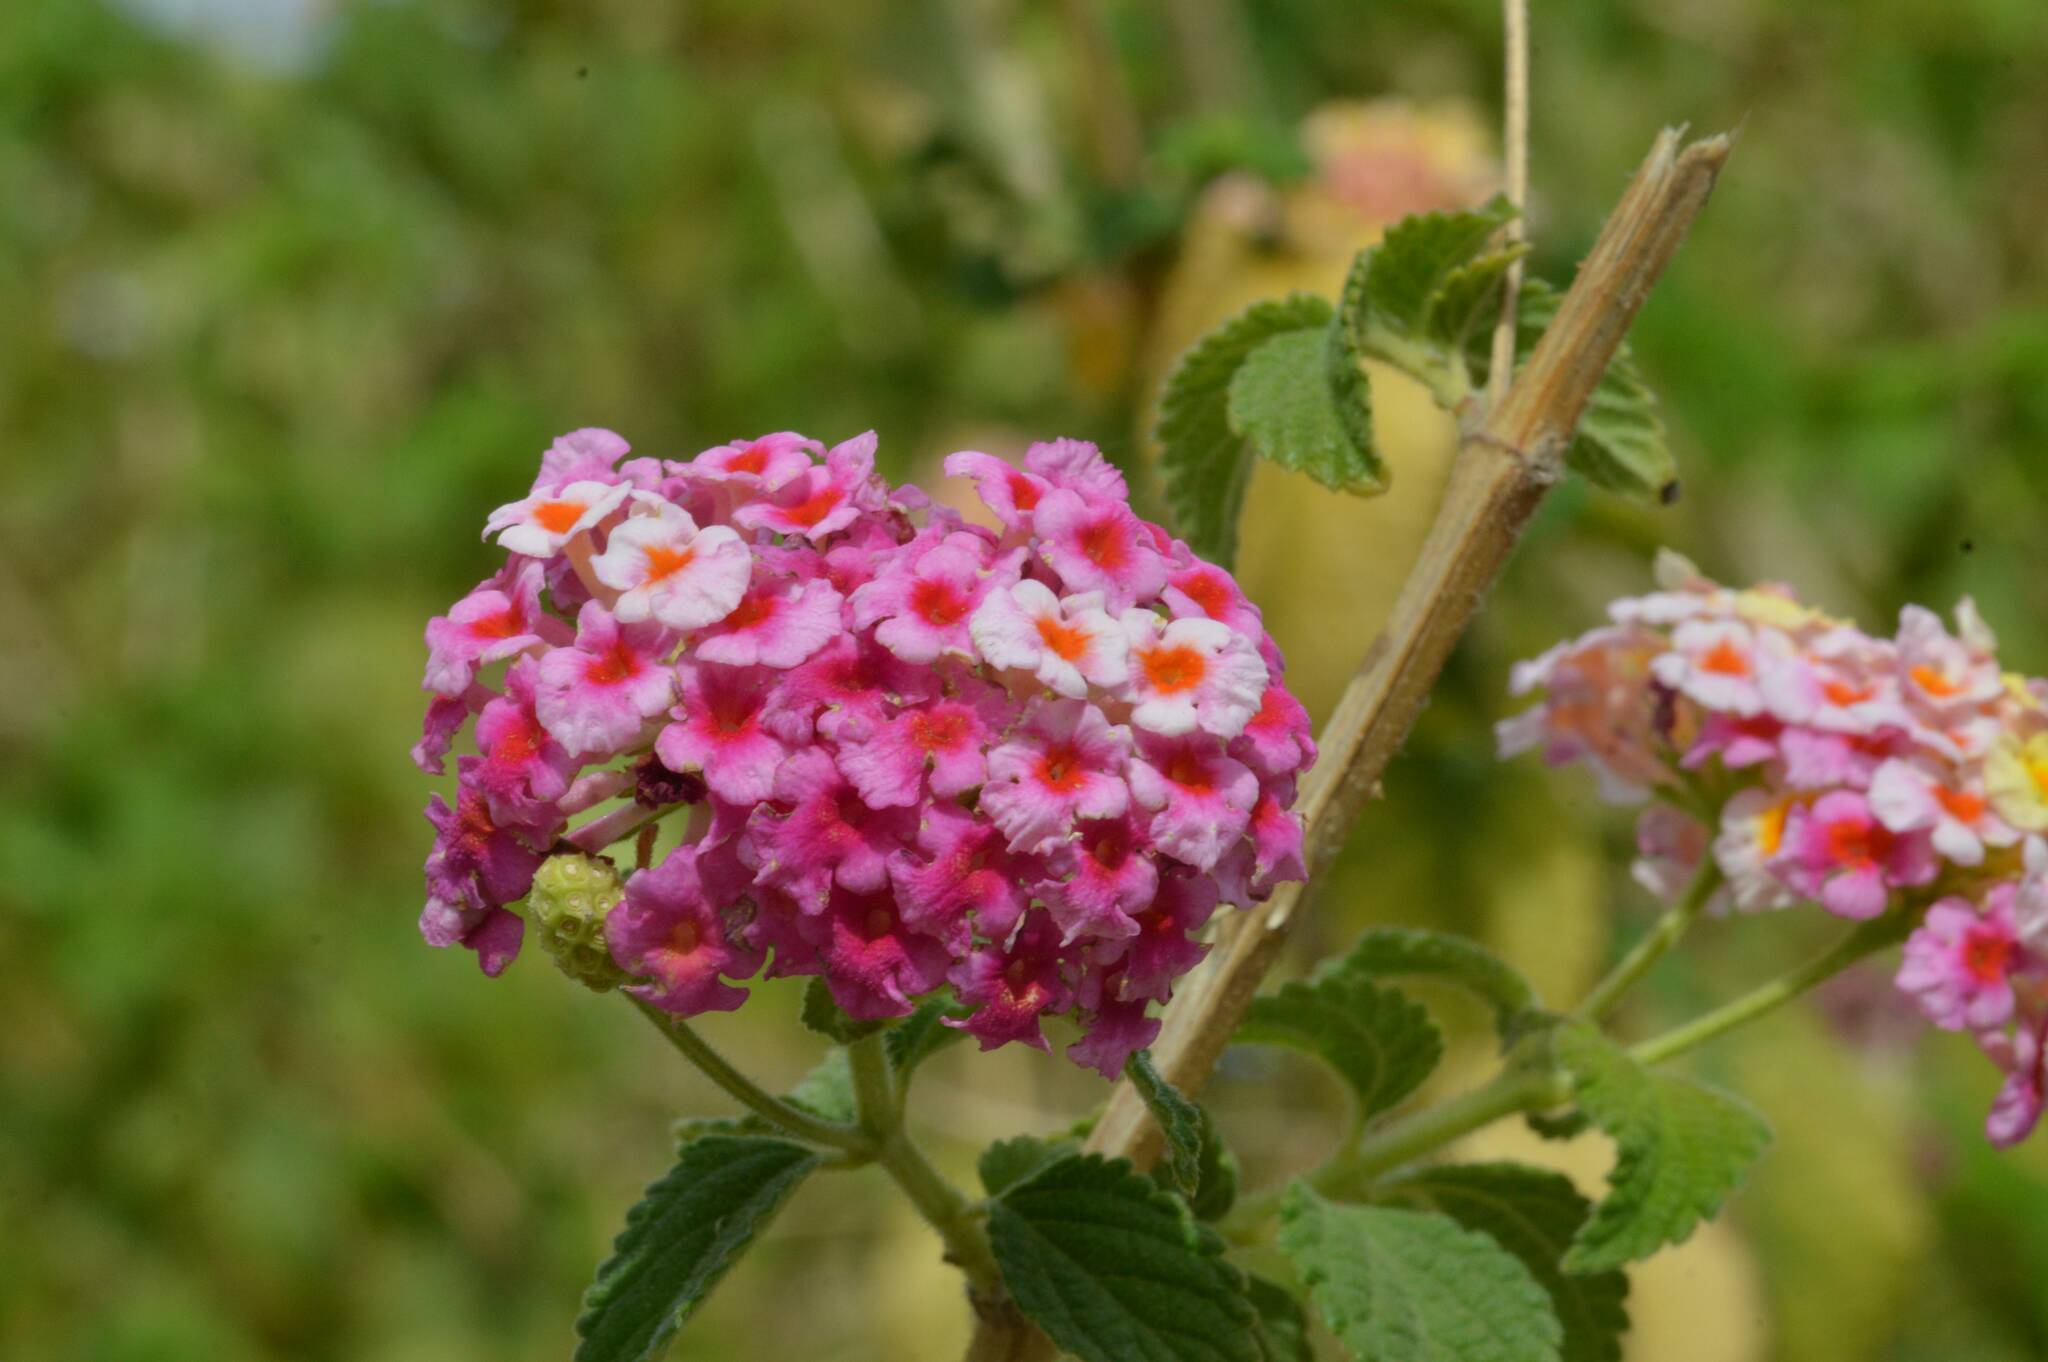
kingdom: Plantae
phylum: Tracheophyta
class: Magnoliopsida
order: Lamiales
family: Verbenaceae
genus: Lantana
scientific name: Lantana camara
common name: Lantana
